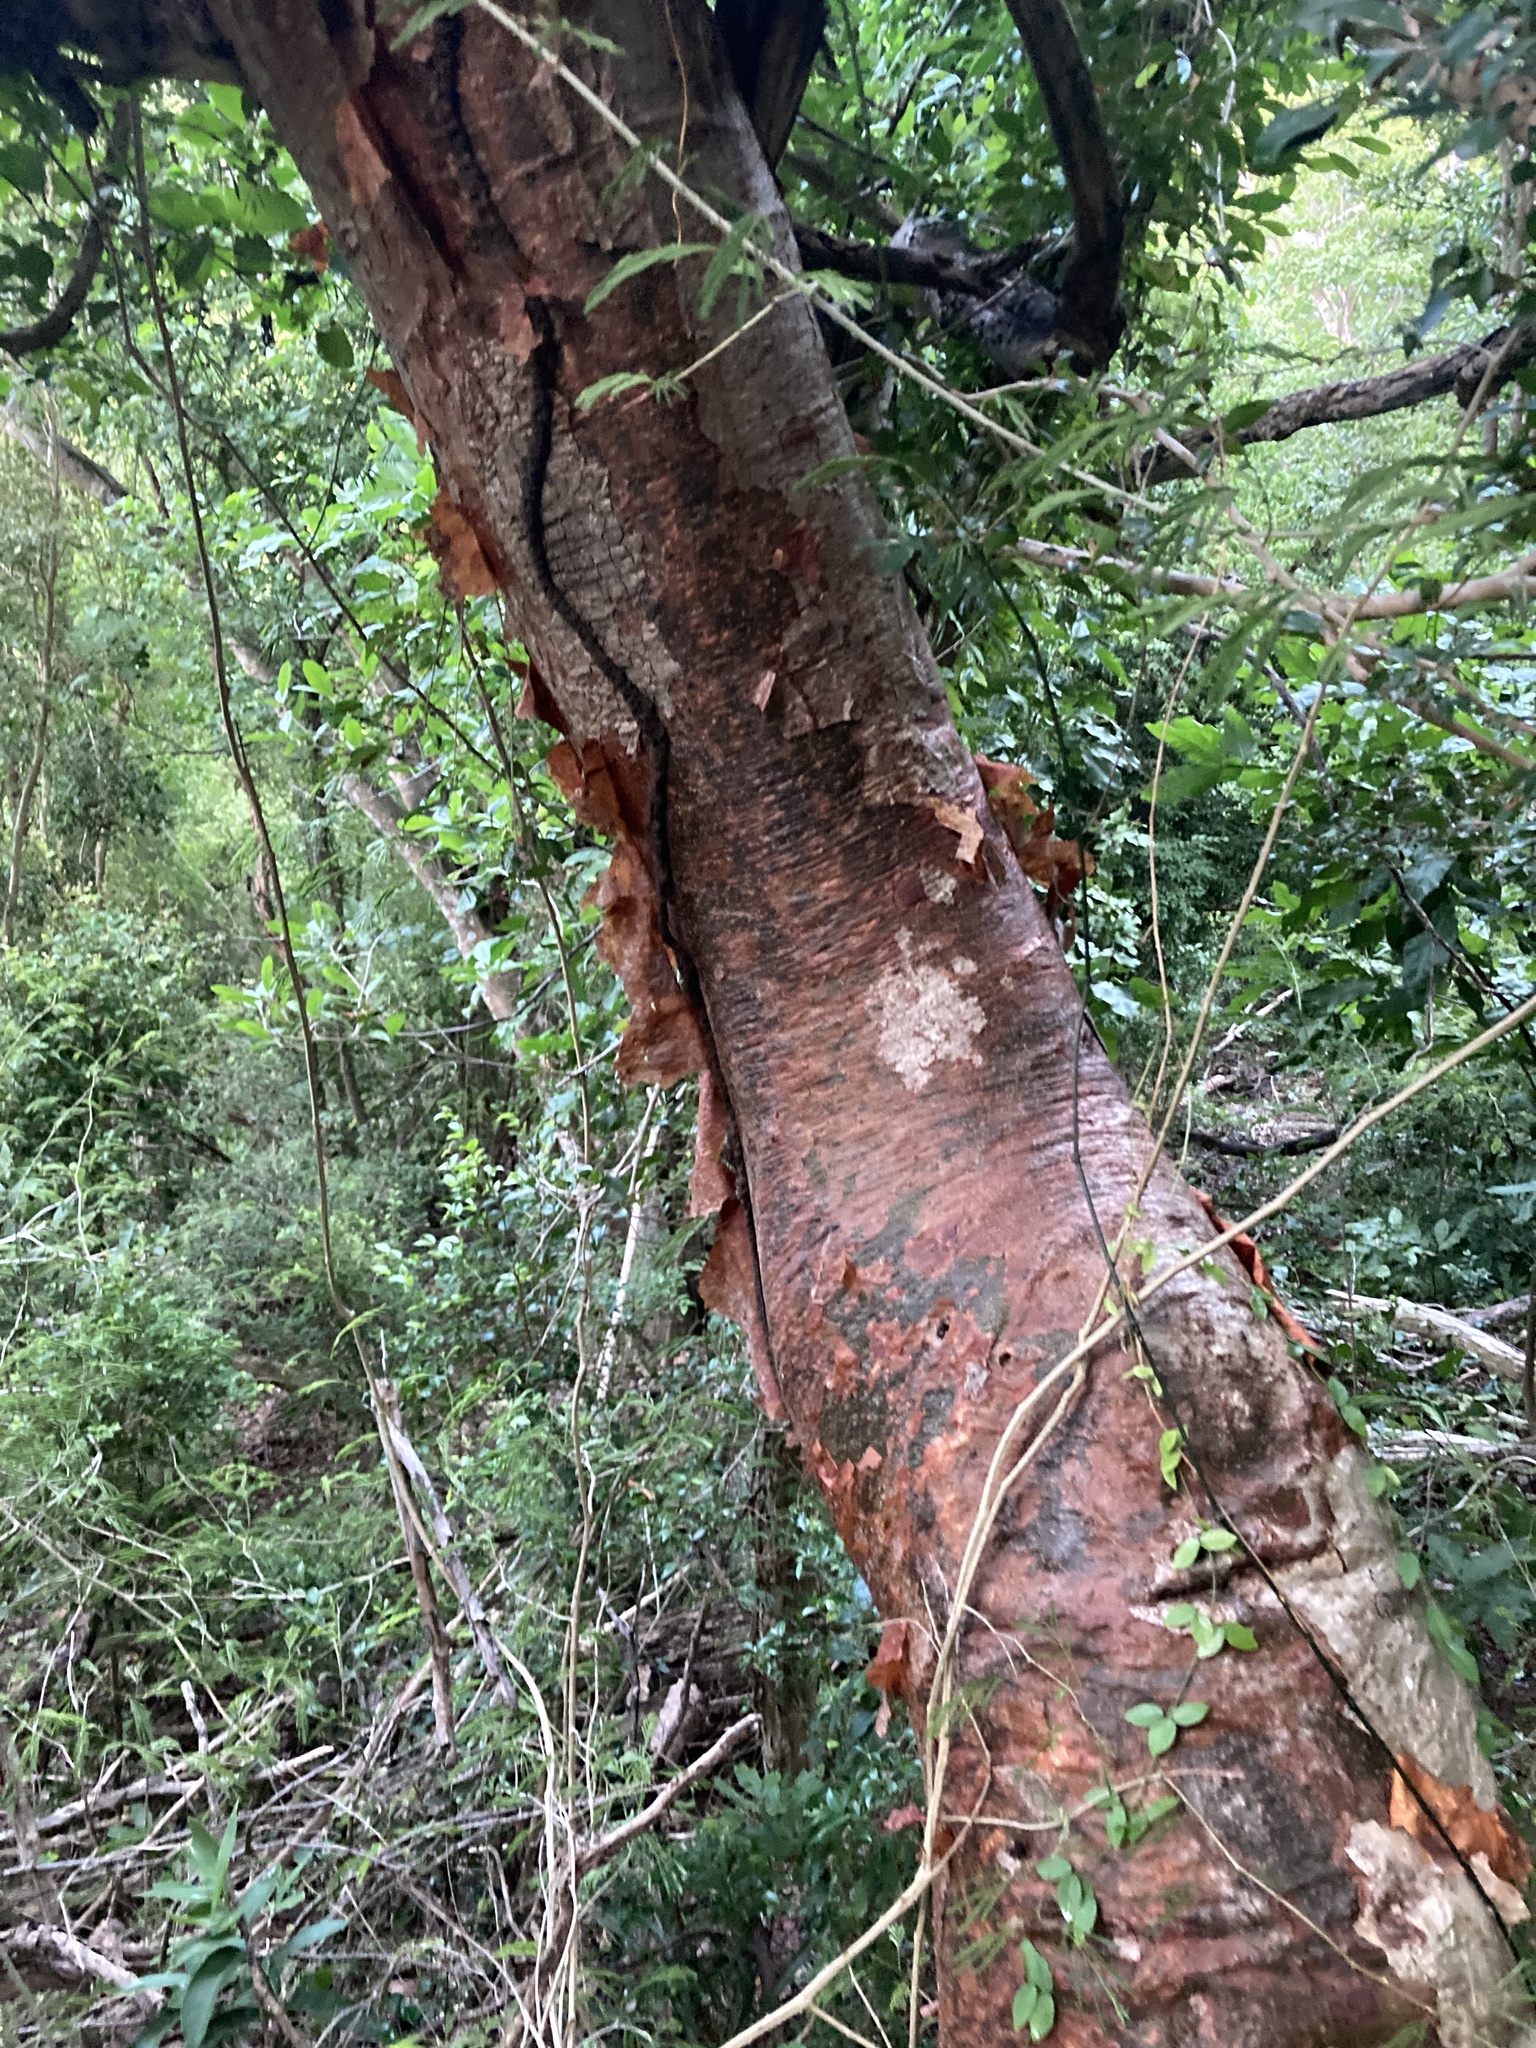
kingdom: Plantae
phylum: Tracheophyta
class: Magnoliopsida
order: Sapindales
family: Burseraceae
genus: Bursera
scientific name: Bursera simaruba
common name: Turpentine tree
